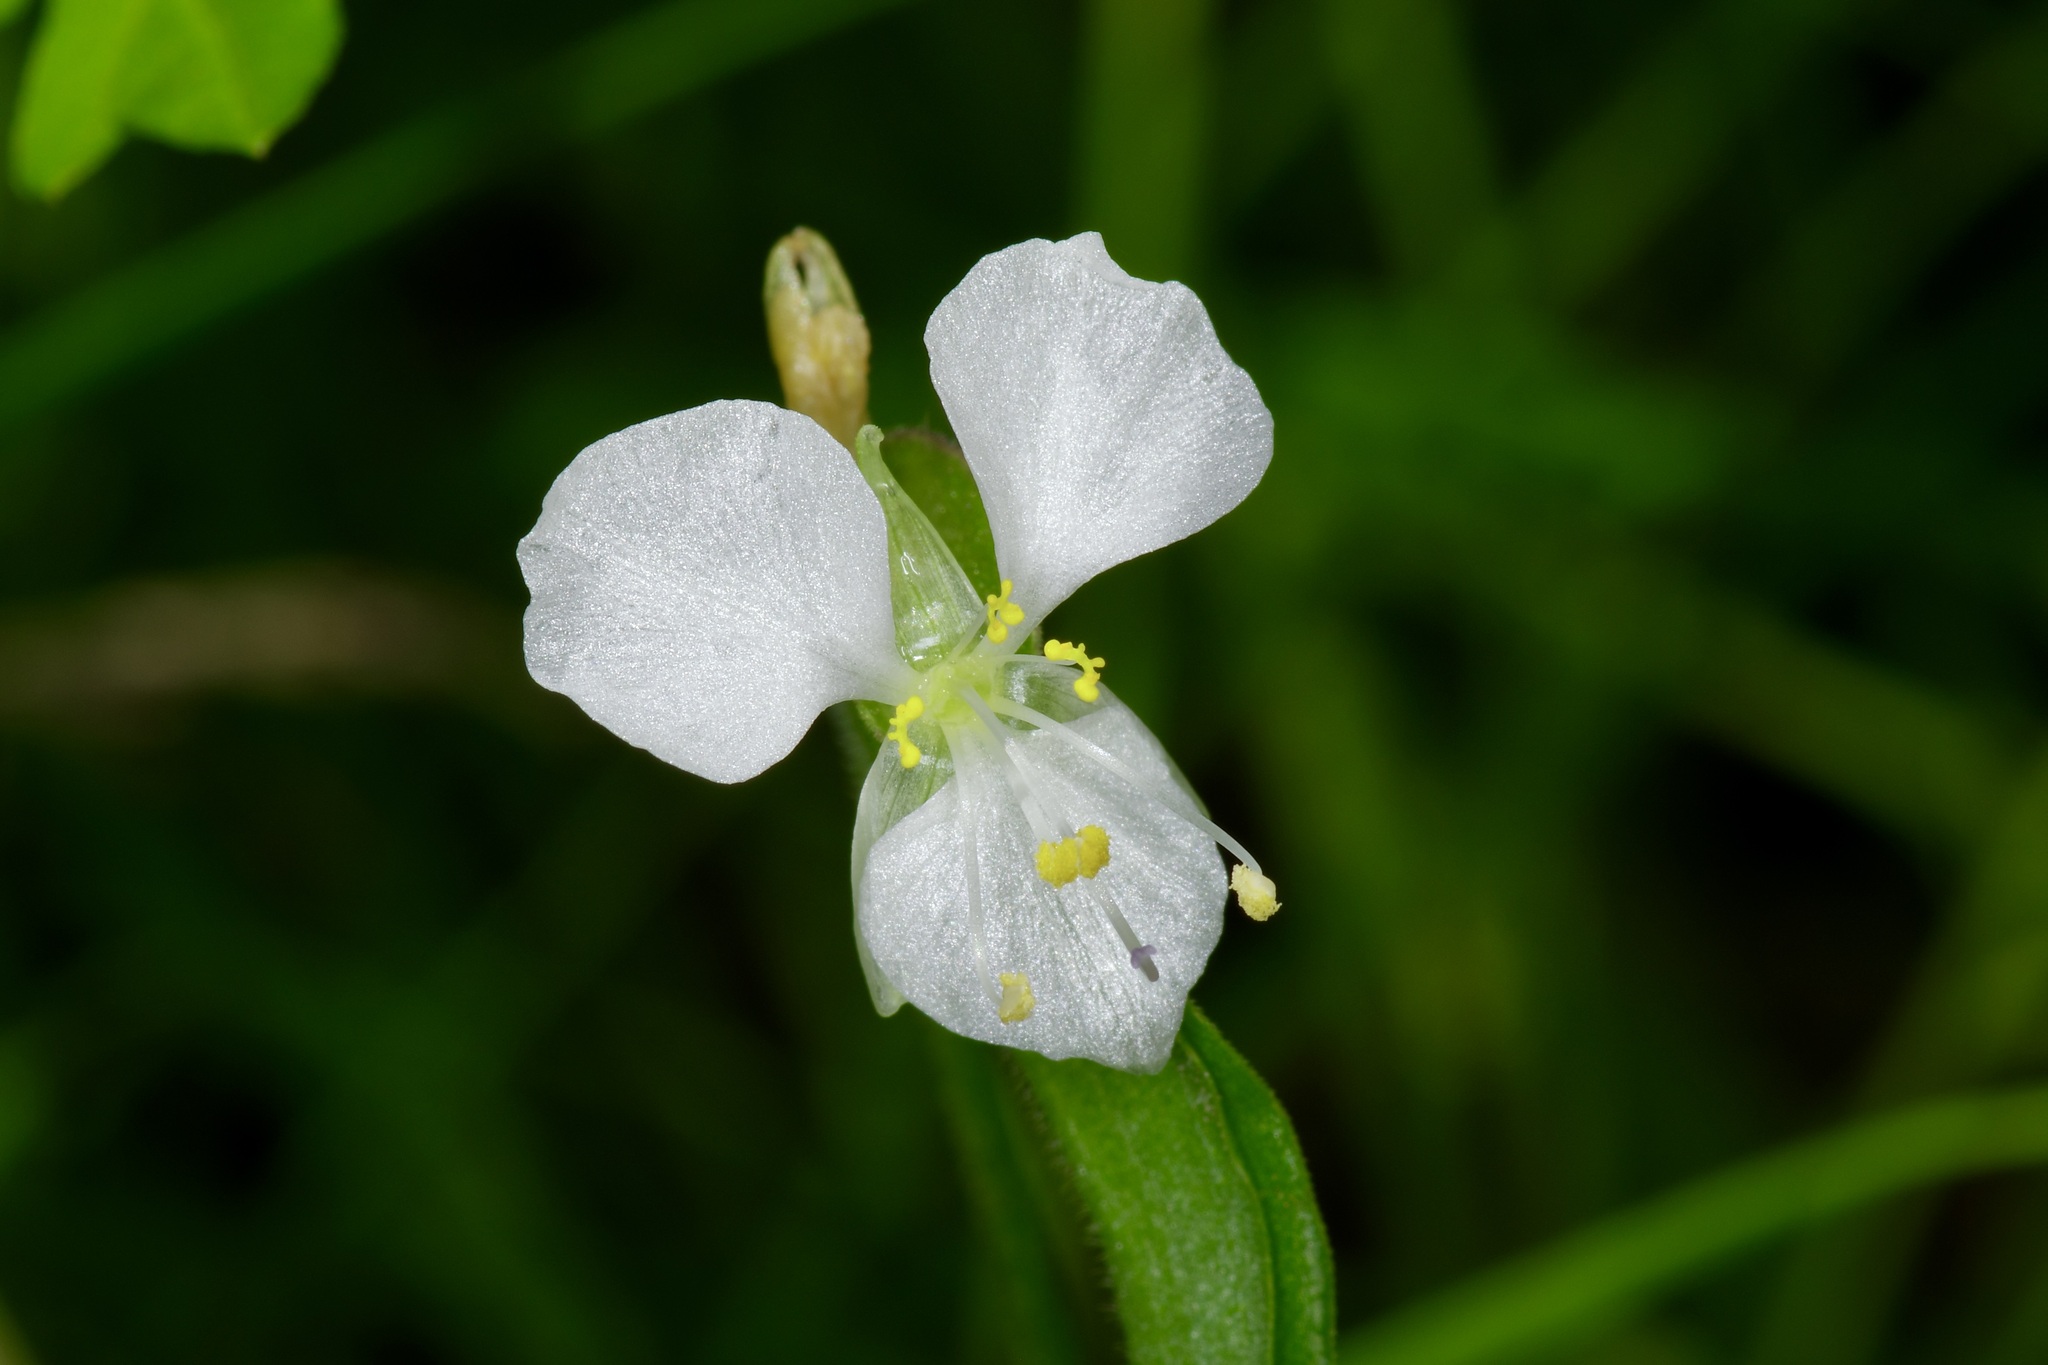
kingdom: Plantae
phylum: Tracheophyta
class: Liliopsida
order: Commelinales
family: Commelinaceae
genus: Commelina
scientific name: Commelina dianthifolia
